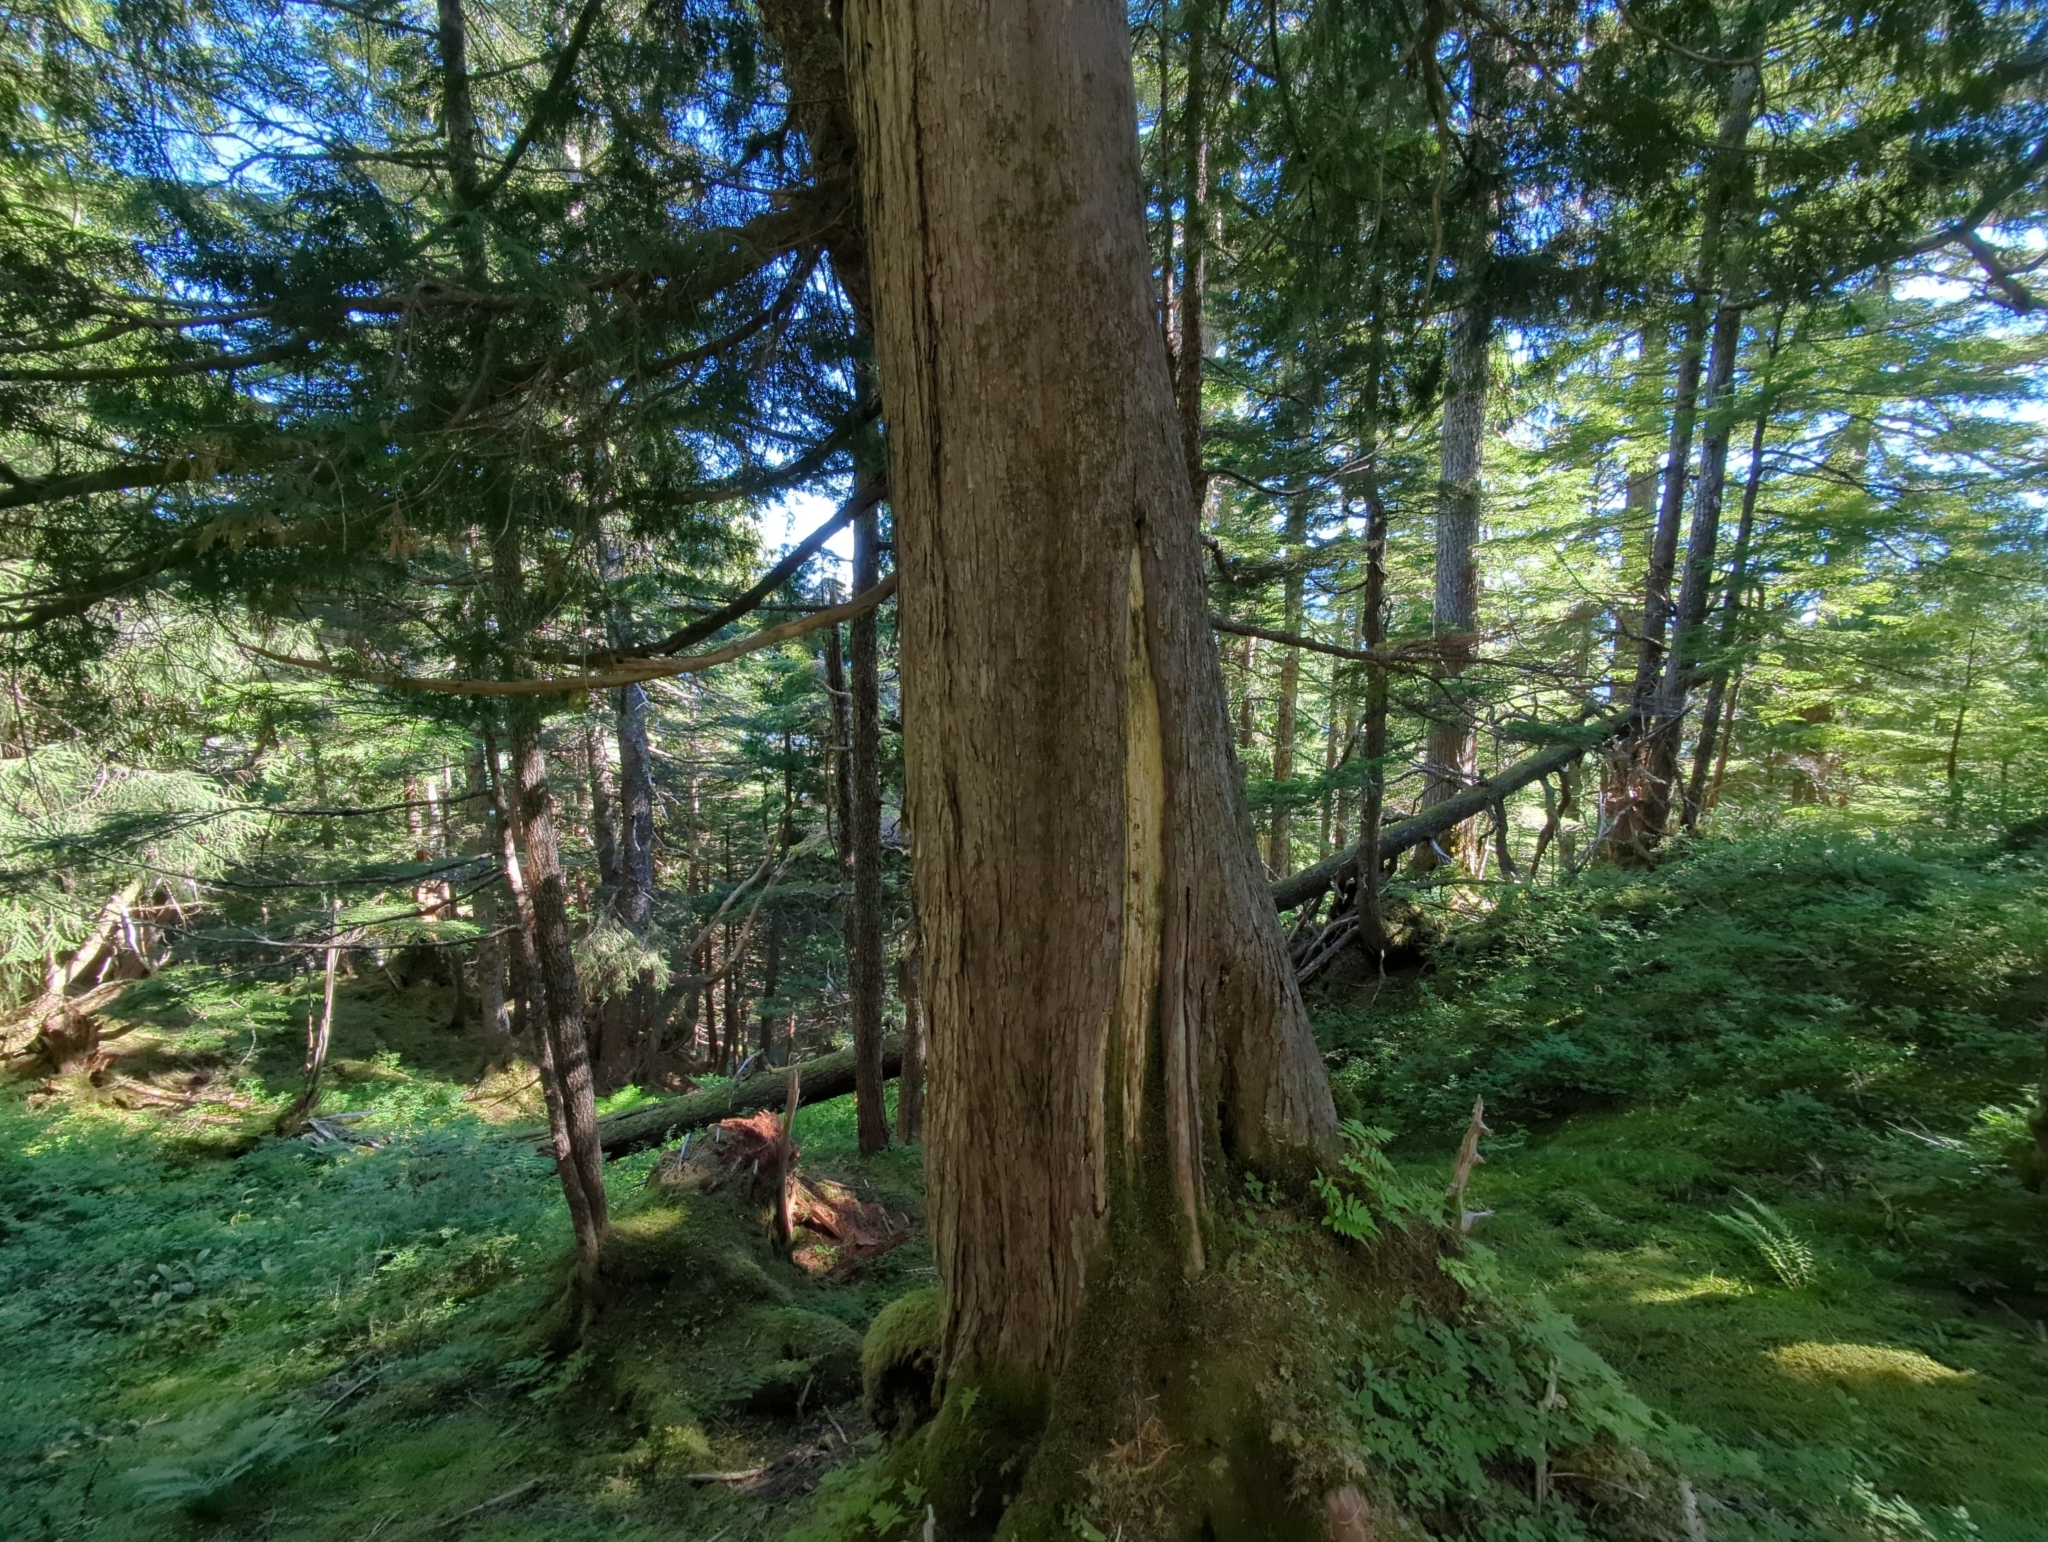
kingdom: Plantae
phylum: Tracheophyta
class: Pinopsida
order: Pinales
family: Cupressaceae
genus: Xanthocyparis
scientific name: Xanthocyparis nootkatensis
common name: Nootka cypress
